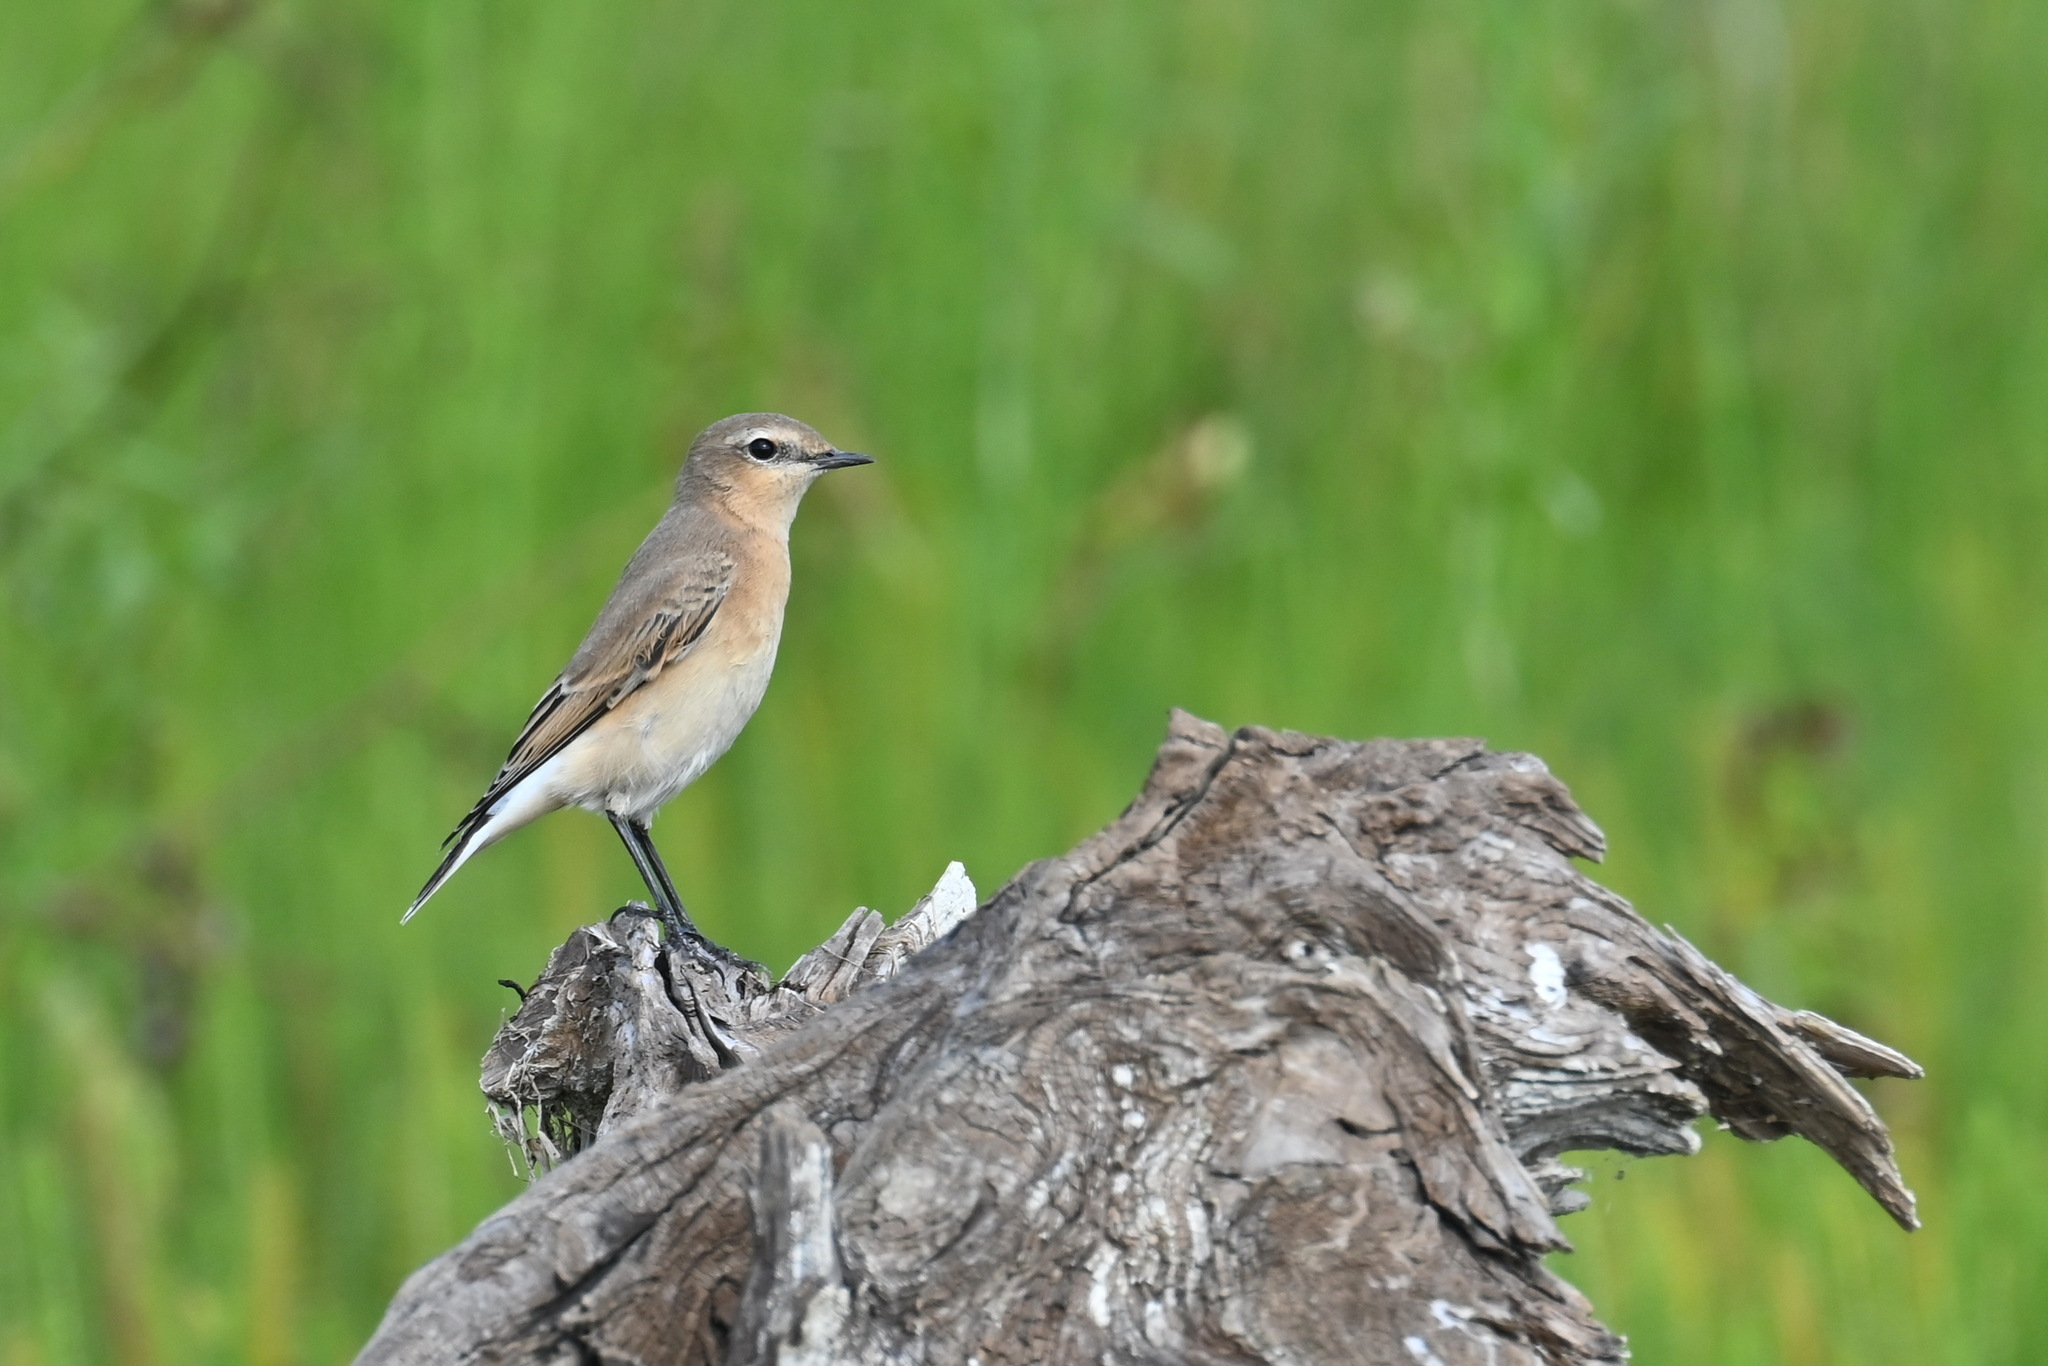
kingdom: Animalia
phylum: Chordata
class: Aves
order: Passeriformes
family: Muscicapidae
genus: Oenanthe
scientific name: Oenanthe oenanthe
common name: Northern wheatear
